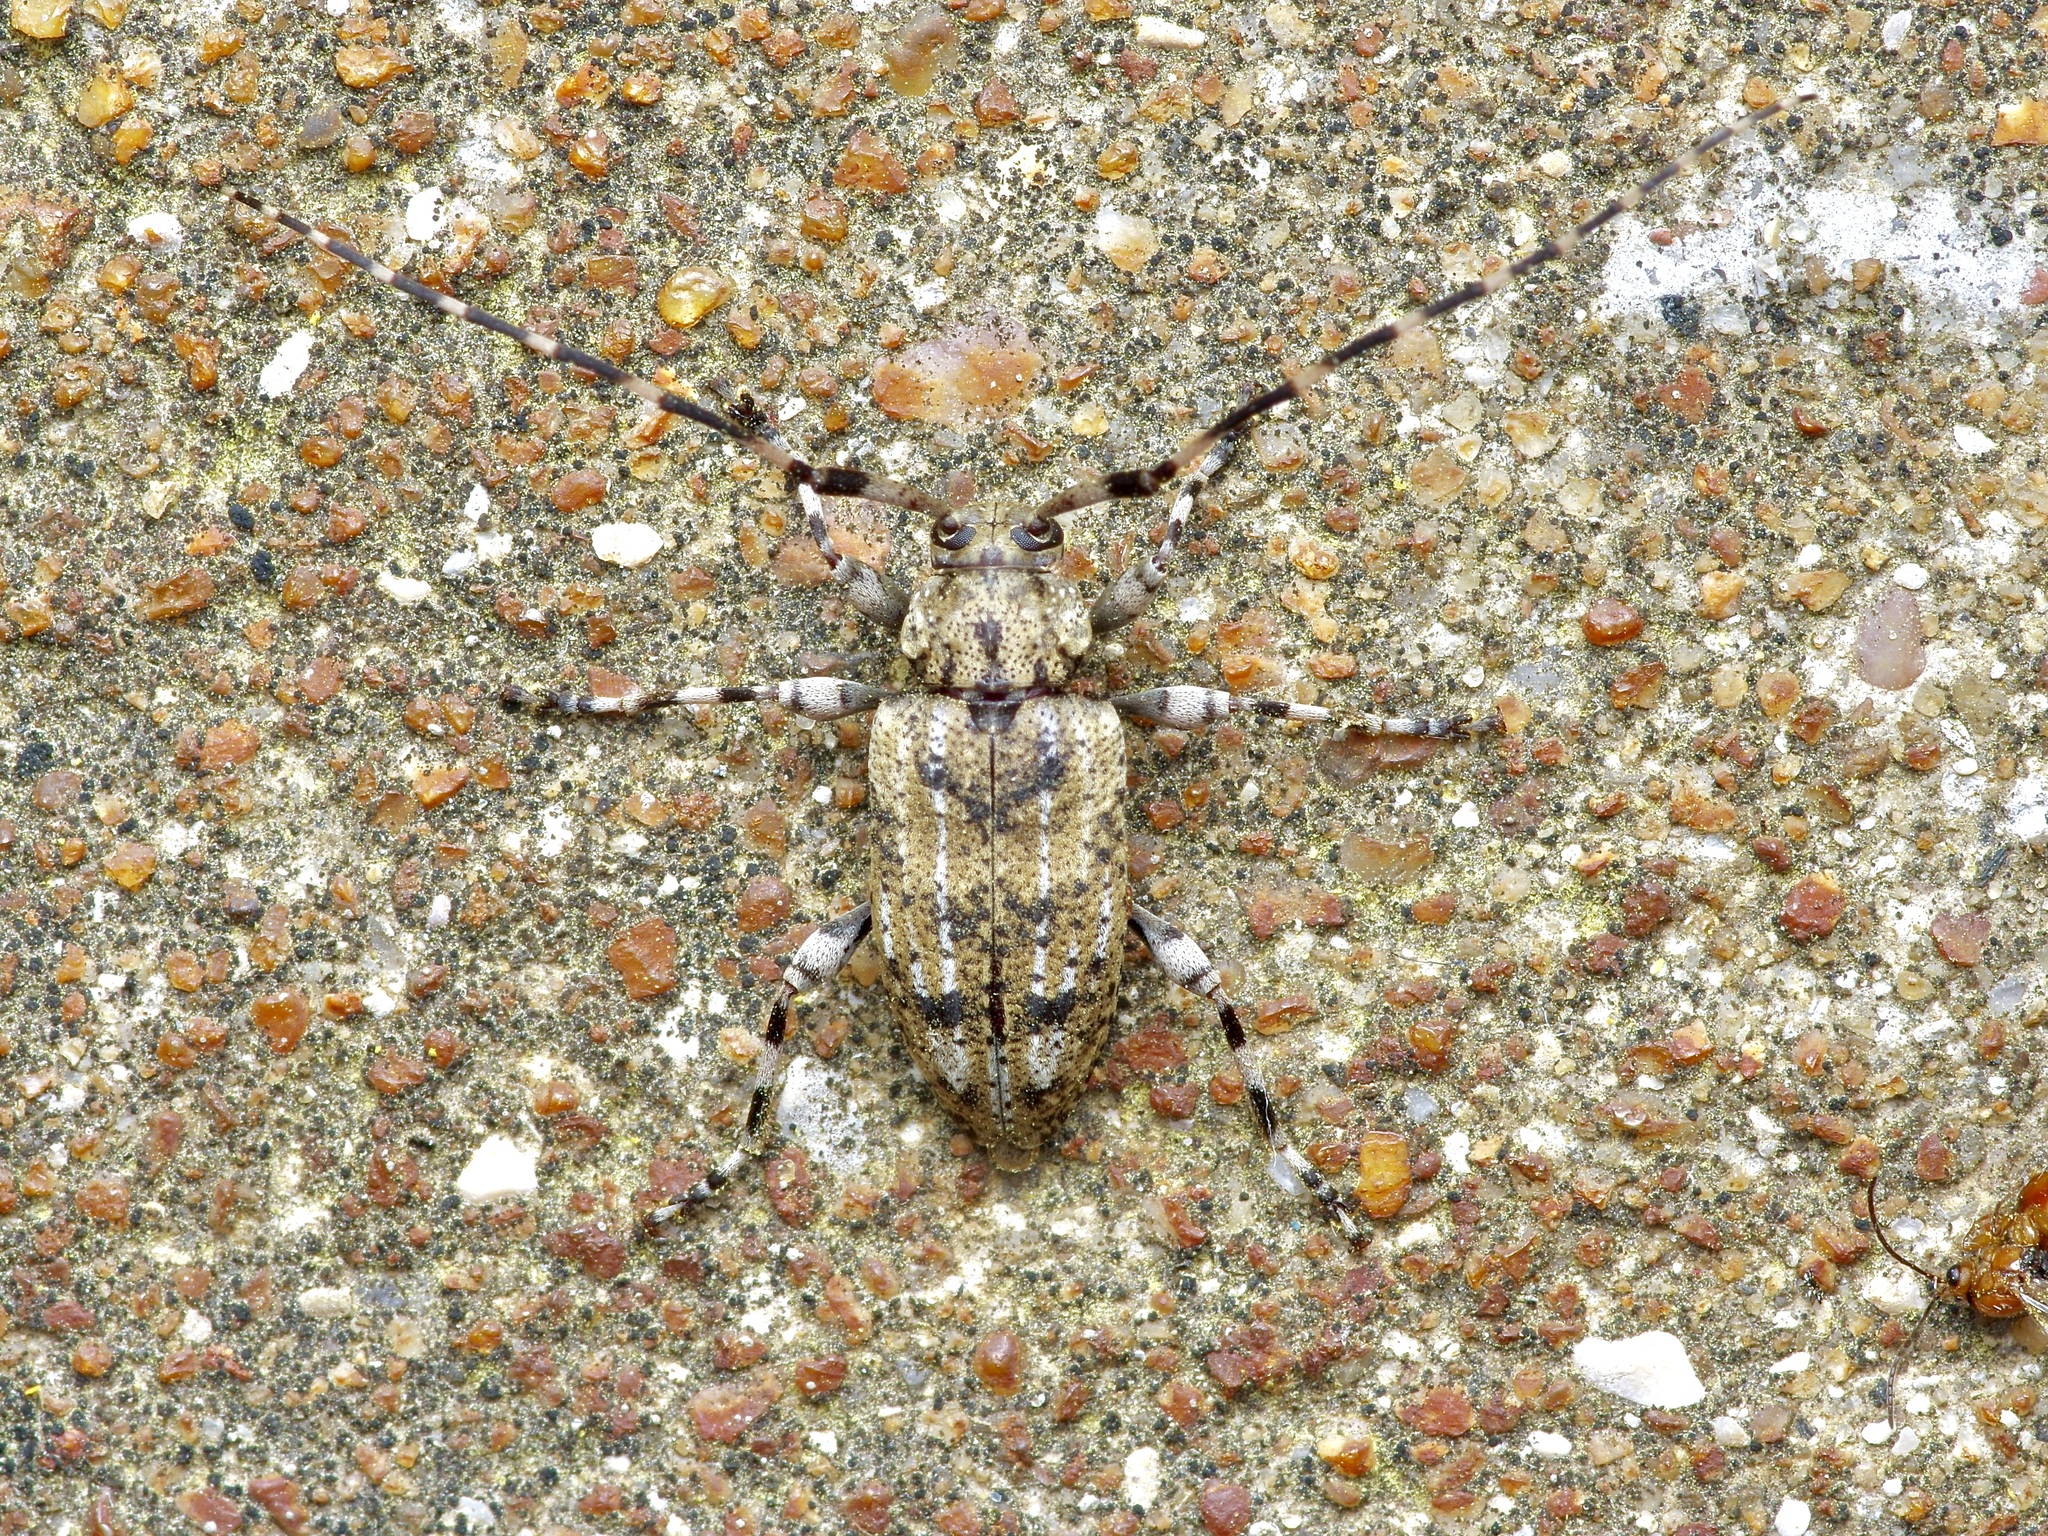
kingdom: Animalia
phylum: Arthropoda
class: Insecta
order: Coleoptera
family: Cerambycidae
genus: Astyleiopus
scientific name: Astyleiopus variegatus
